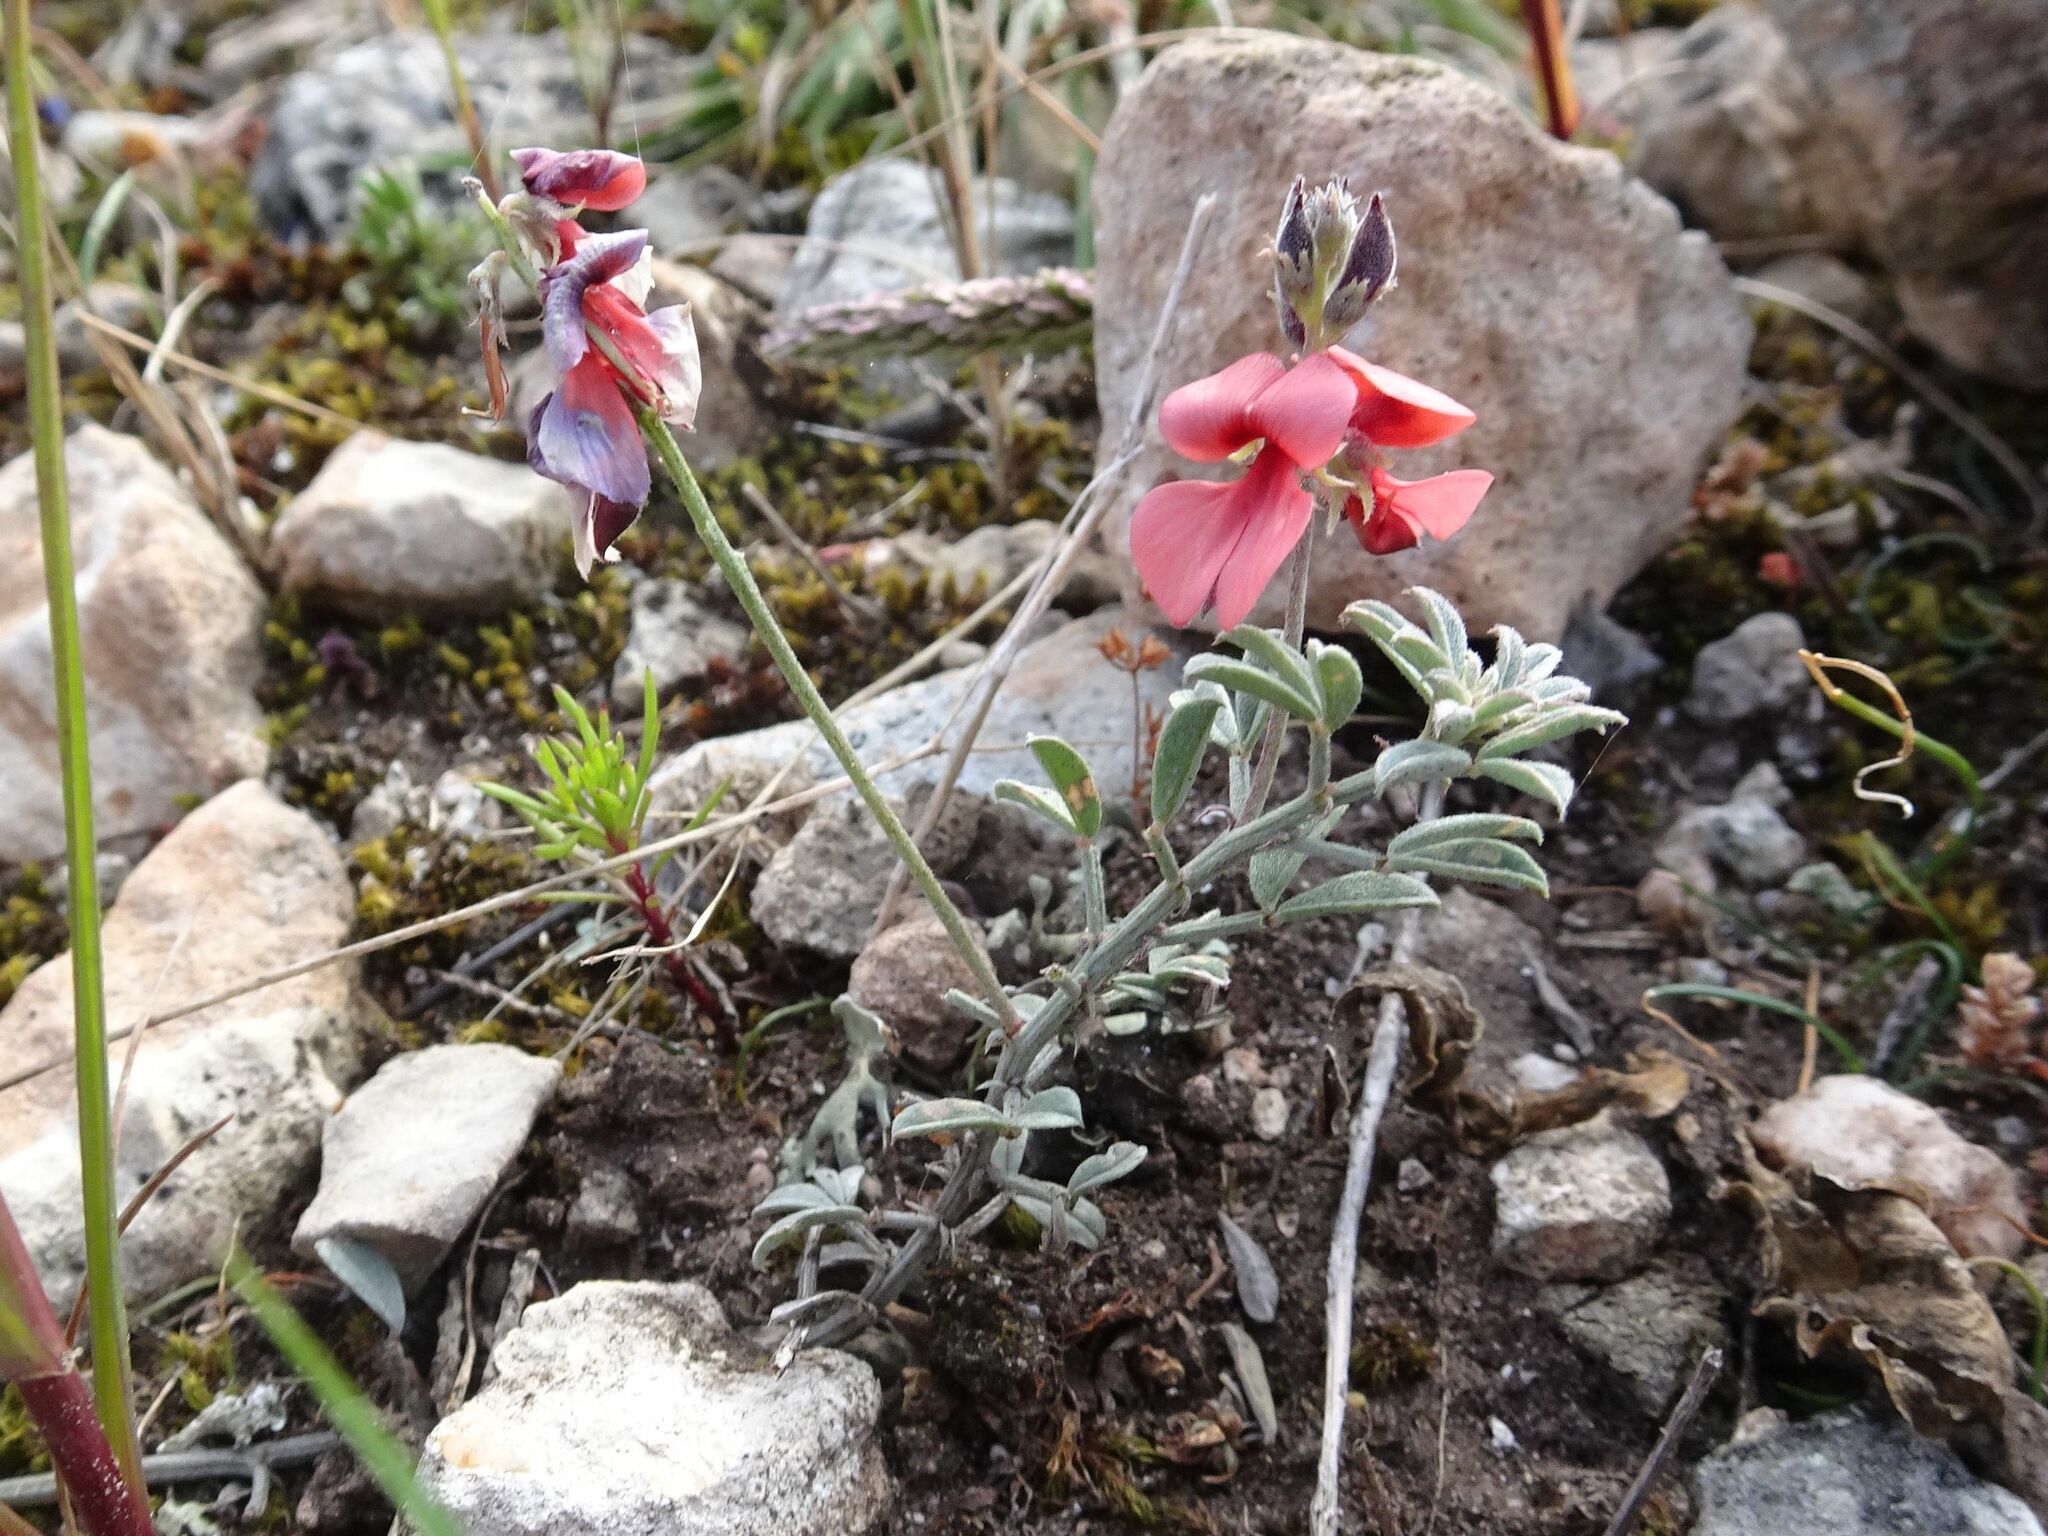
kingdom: Plantae
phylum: Tracheophyta
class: Magnoliopsida
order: Fabales
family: Fabaceae
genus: Indigofera
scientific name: Indigofera heterophylla
